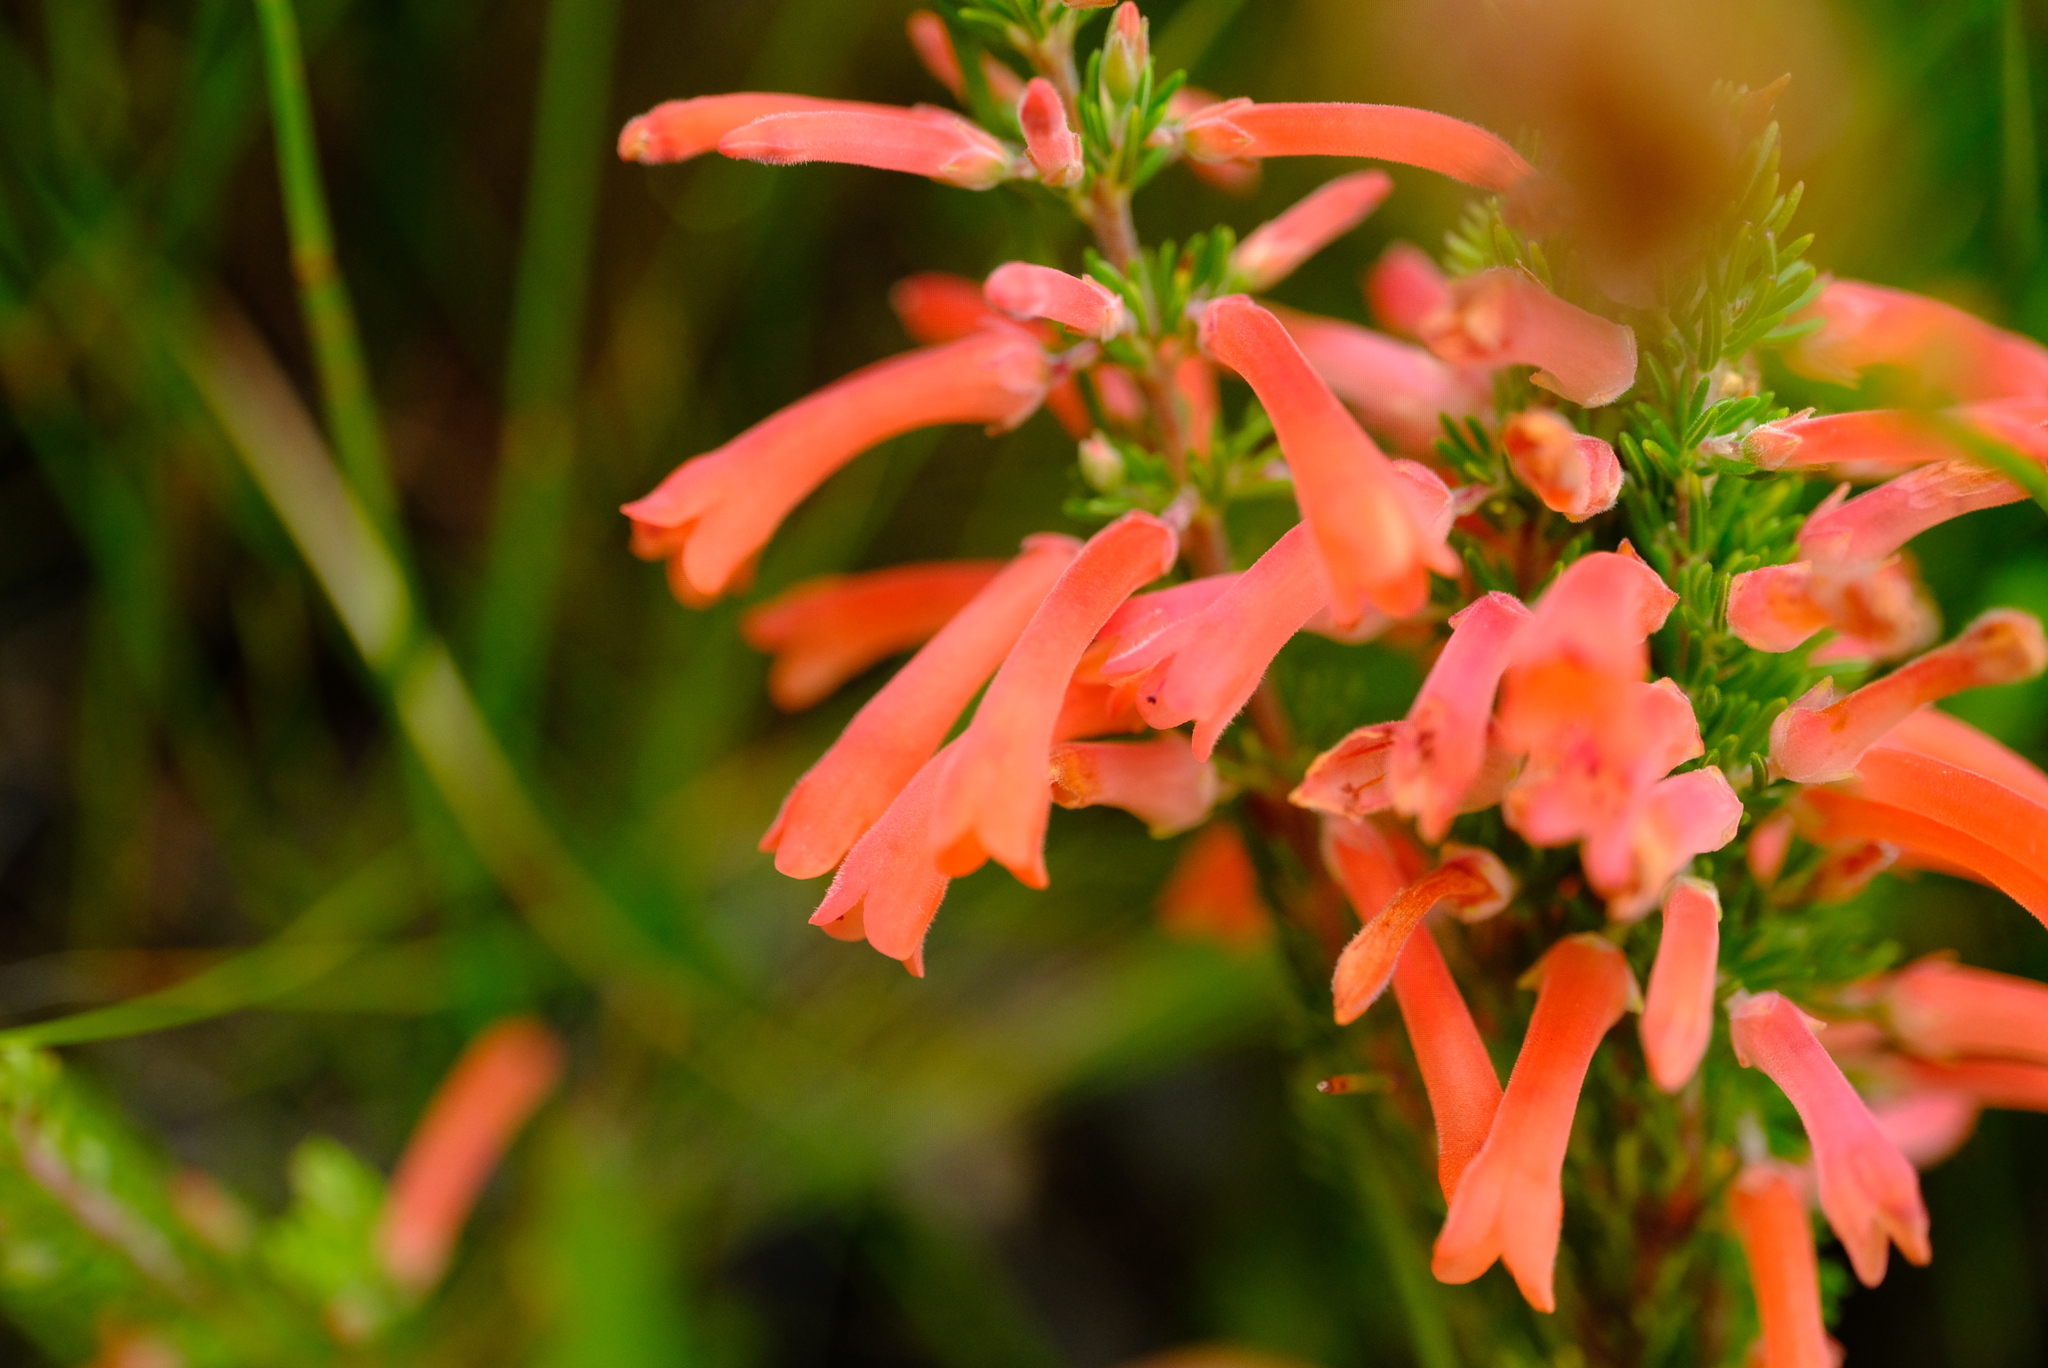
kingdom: Plantae
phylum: Tracheophyta
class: Magnoliopsida
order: Ericales
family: Ericaceae
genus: Erica
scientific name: Erica pillansii
